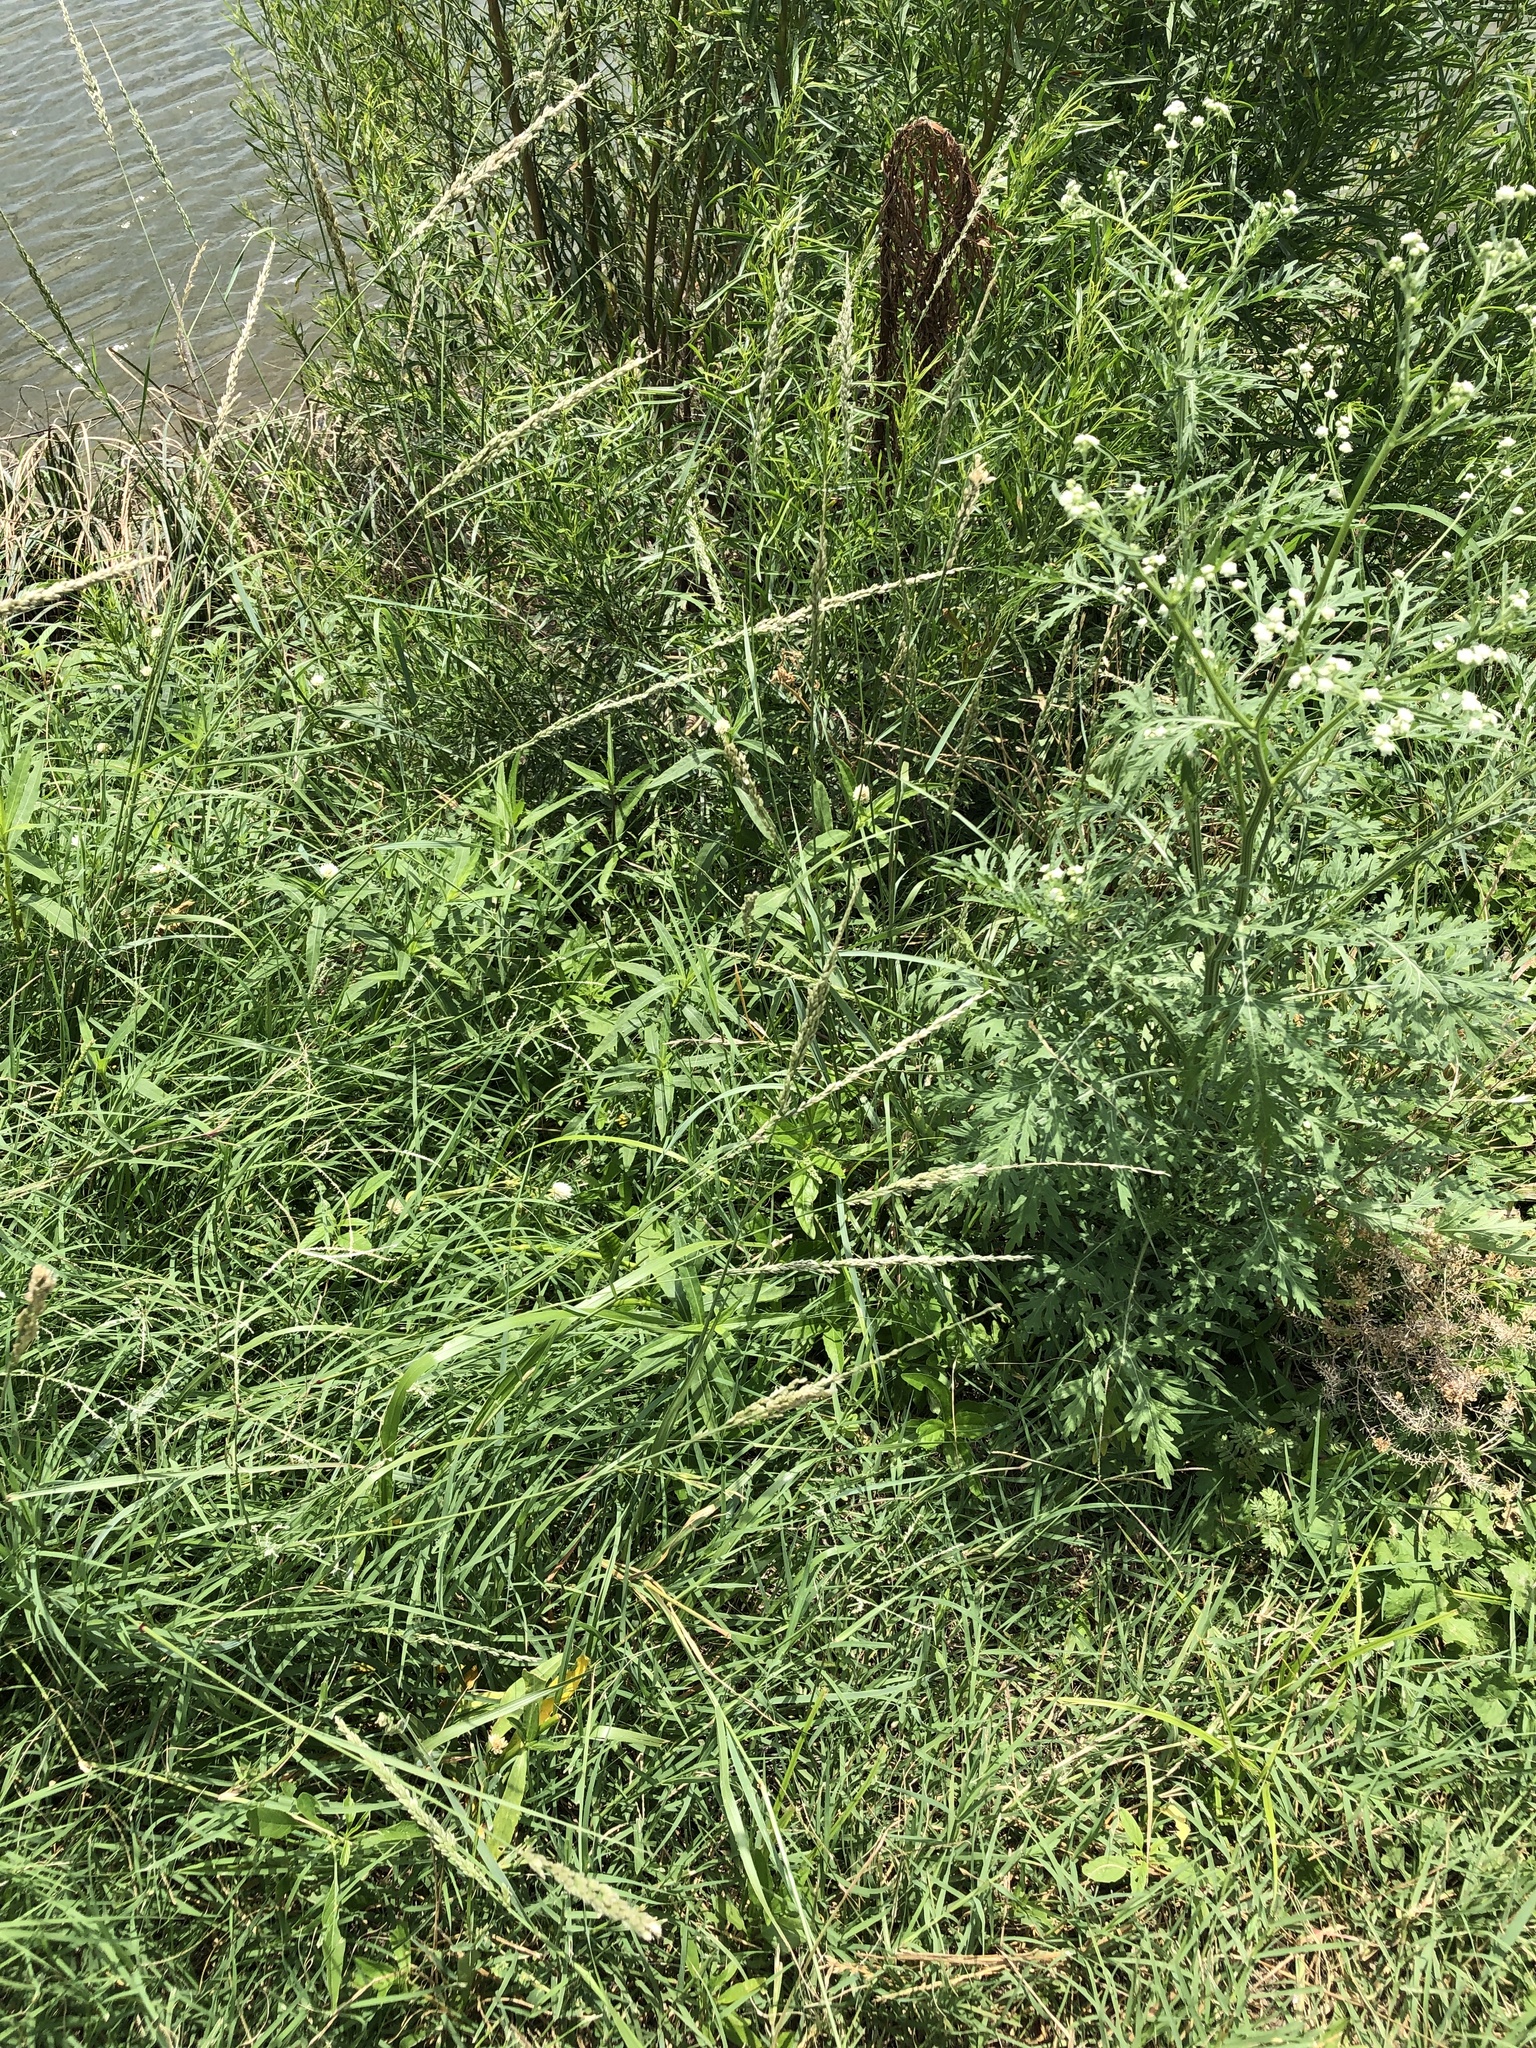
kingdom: Plantae
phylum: Tracheophyta
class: Liliopsida
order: Poales
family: Poaceae
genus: Tridens
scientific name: Tridens albescens
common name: White tridens
